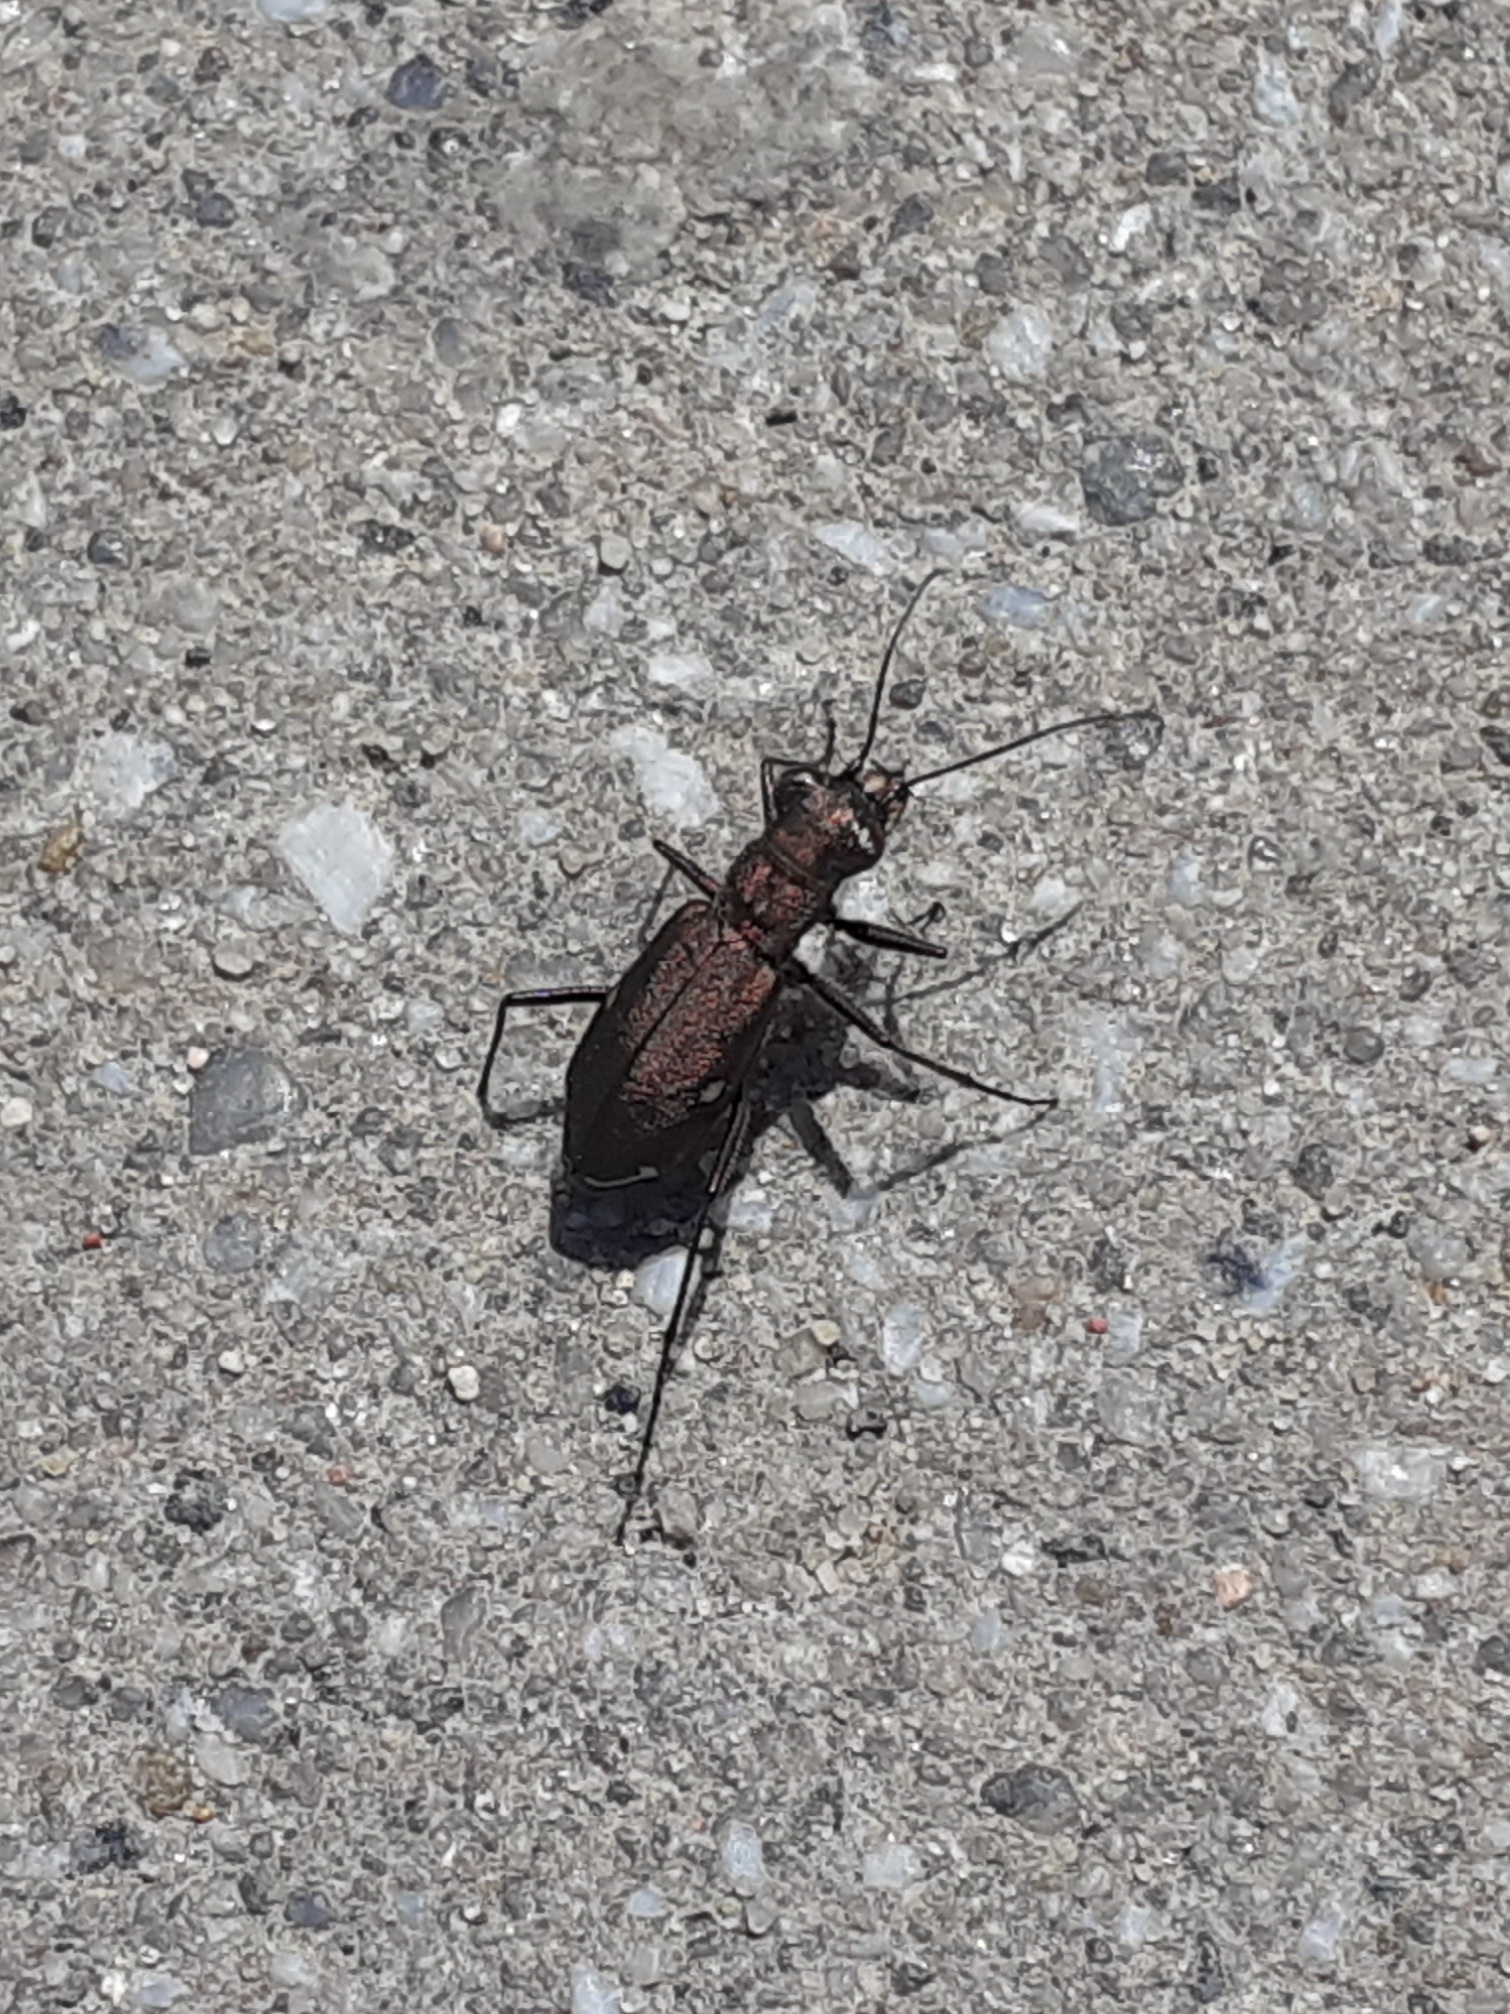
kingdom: Animalia
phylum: Arthropoda
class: Insecta
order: Coleoptera
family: Carabidae
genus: Cylindera
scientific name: Cylindera germanica
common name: Cliff tiger beetle
